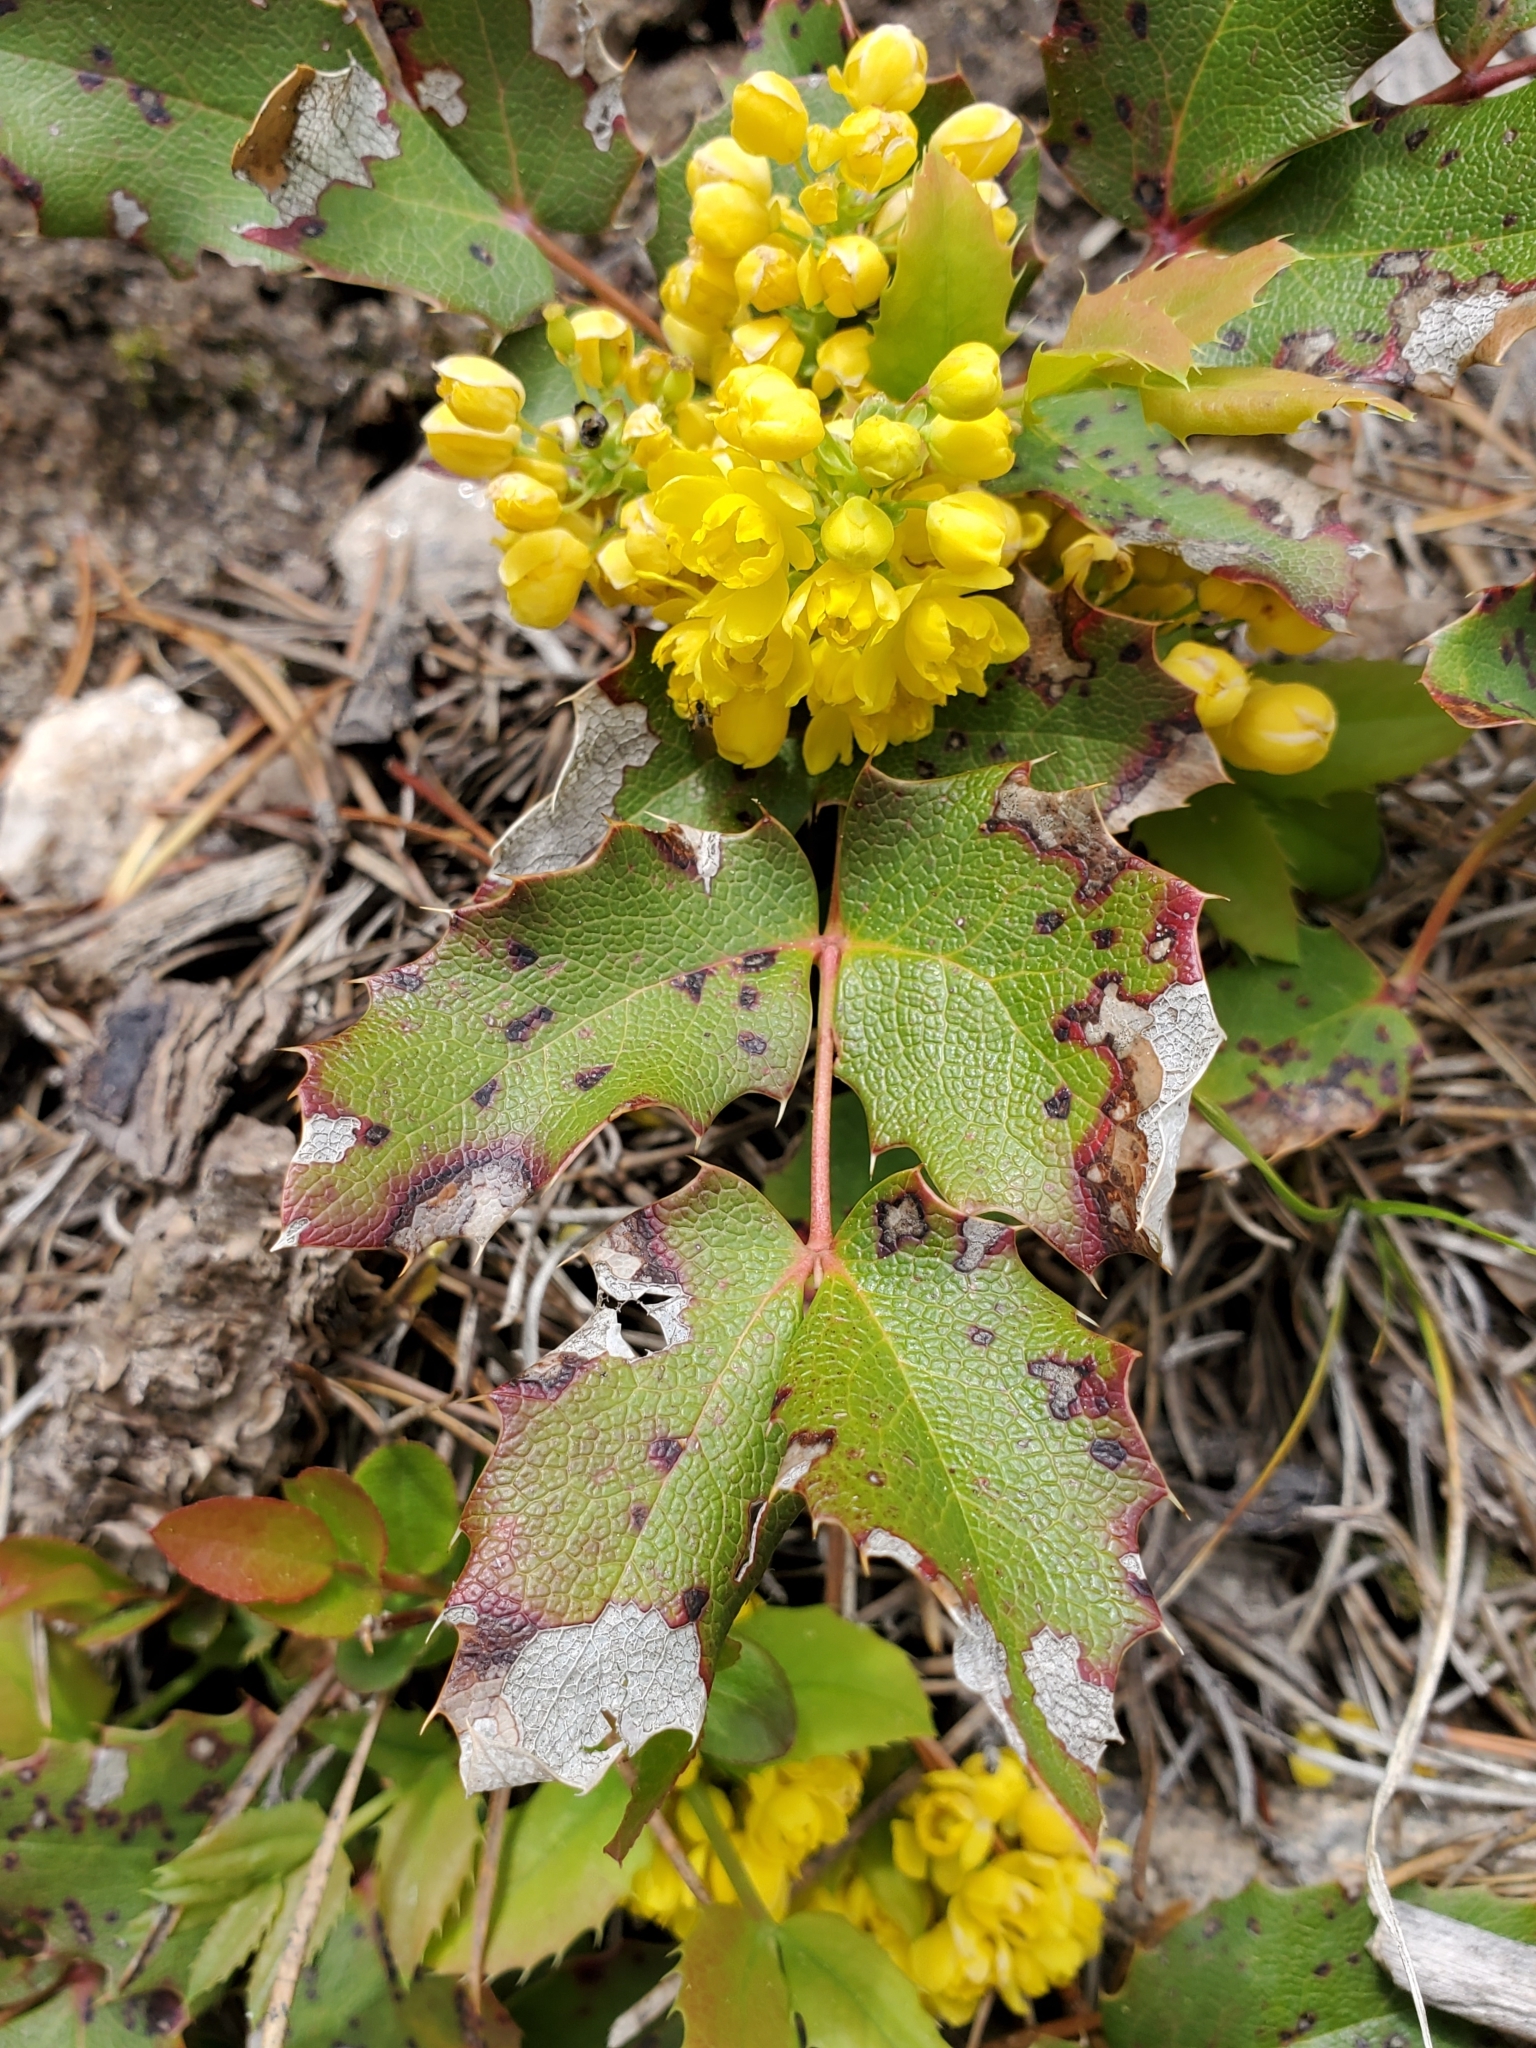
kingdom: Plantae
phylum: Tracheophyta
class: Magnoliopsida
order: Ranunculales
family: Berberidaceae
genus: Mahonia
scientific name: Mahonia repens
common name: Creeping oregon-grape
